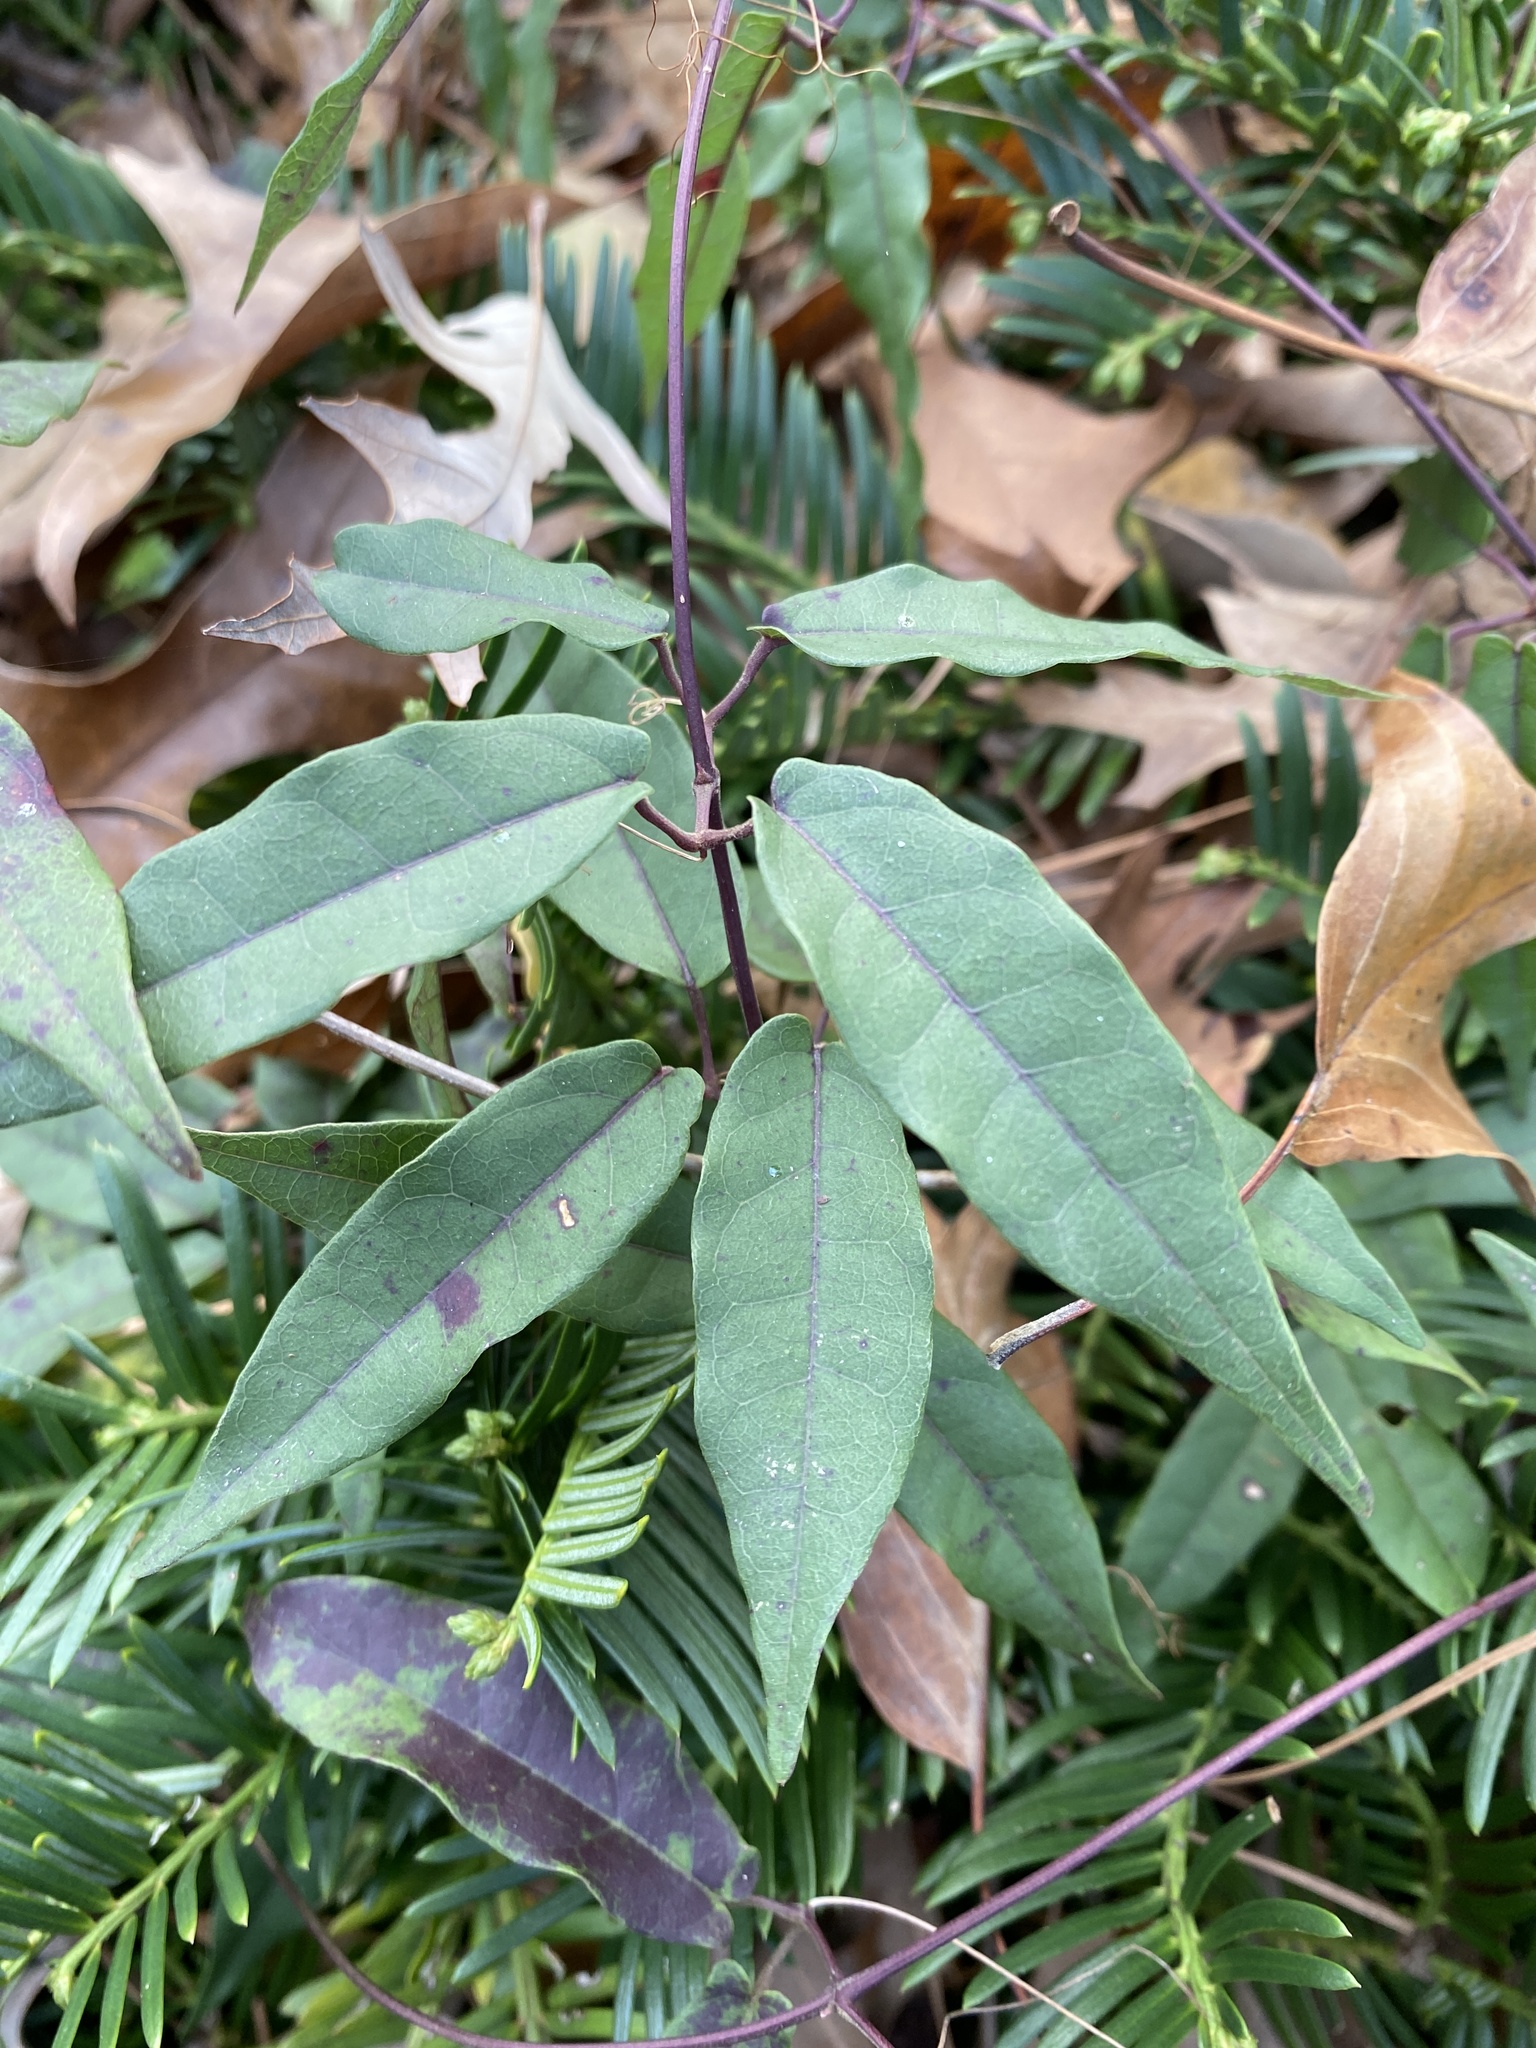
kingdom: Plantae
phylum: Tracheophyta
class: Magnoliopsida
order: Lamiales
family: Bignoniaceae
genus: Bignonia
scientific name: Bignonia capreolata
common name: Crossvine
